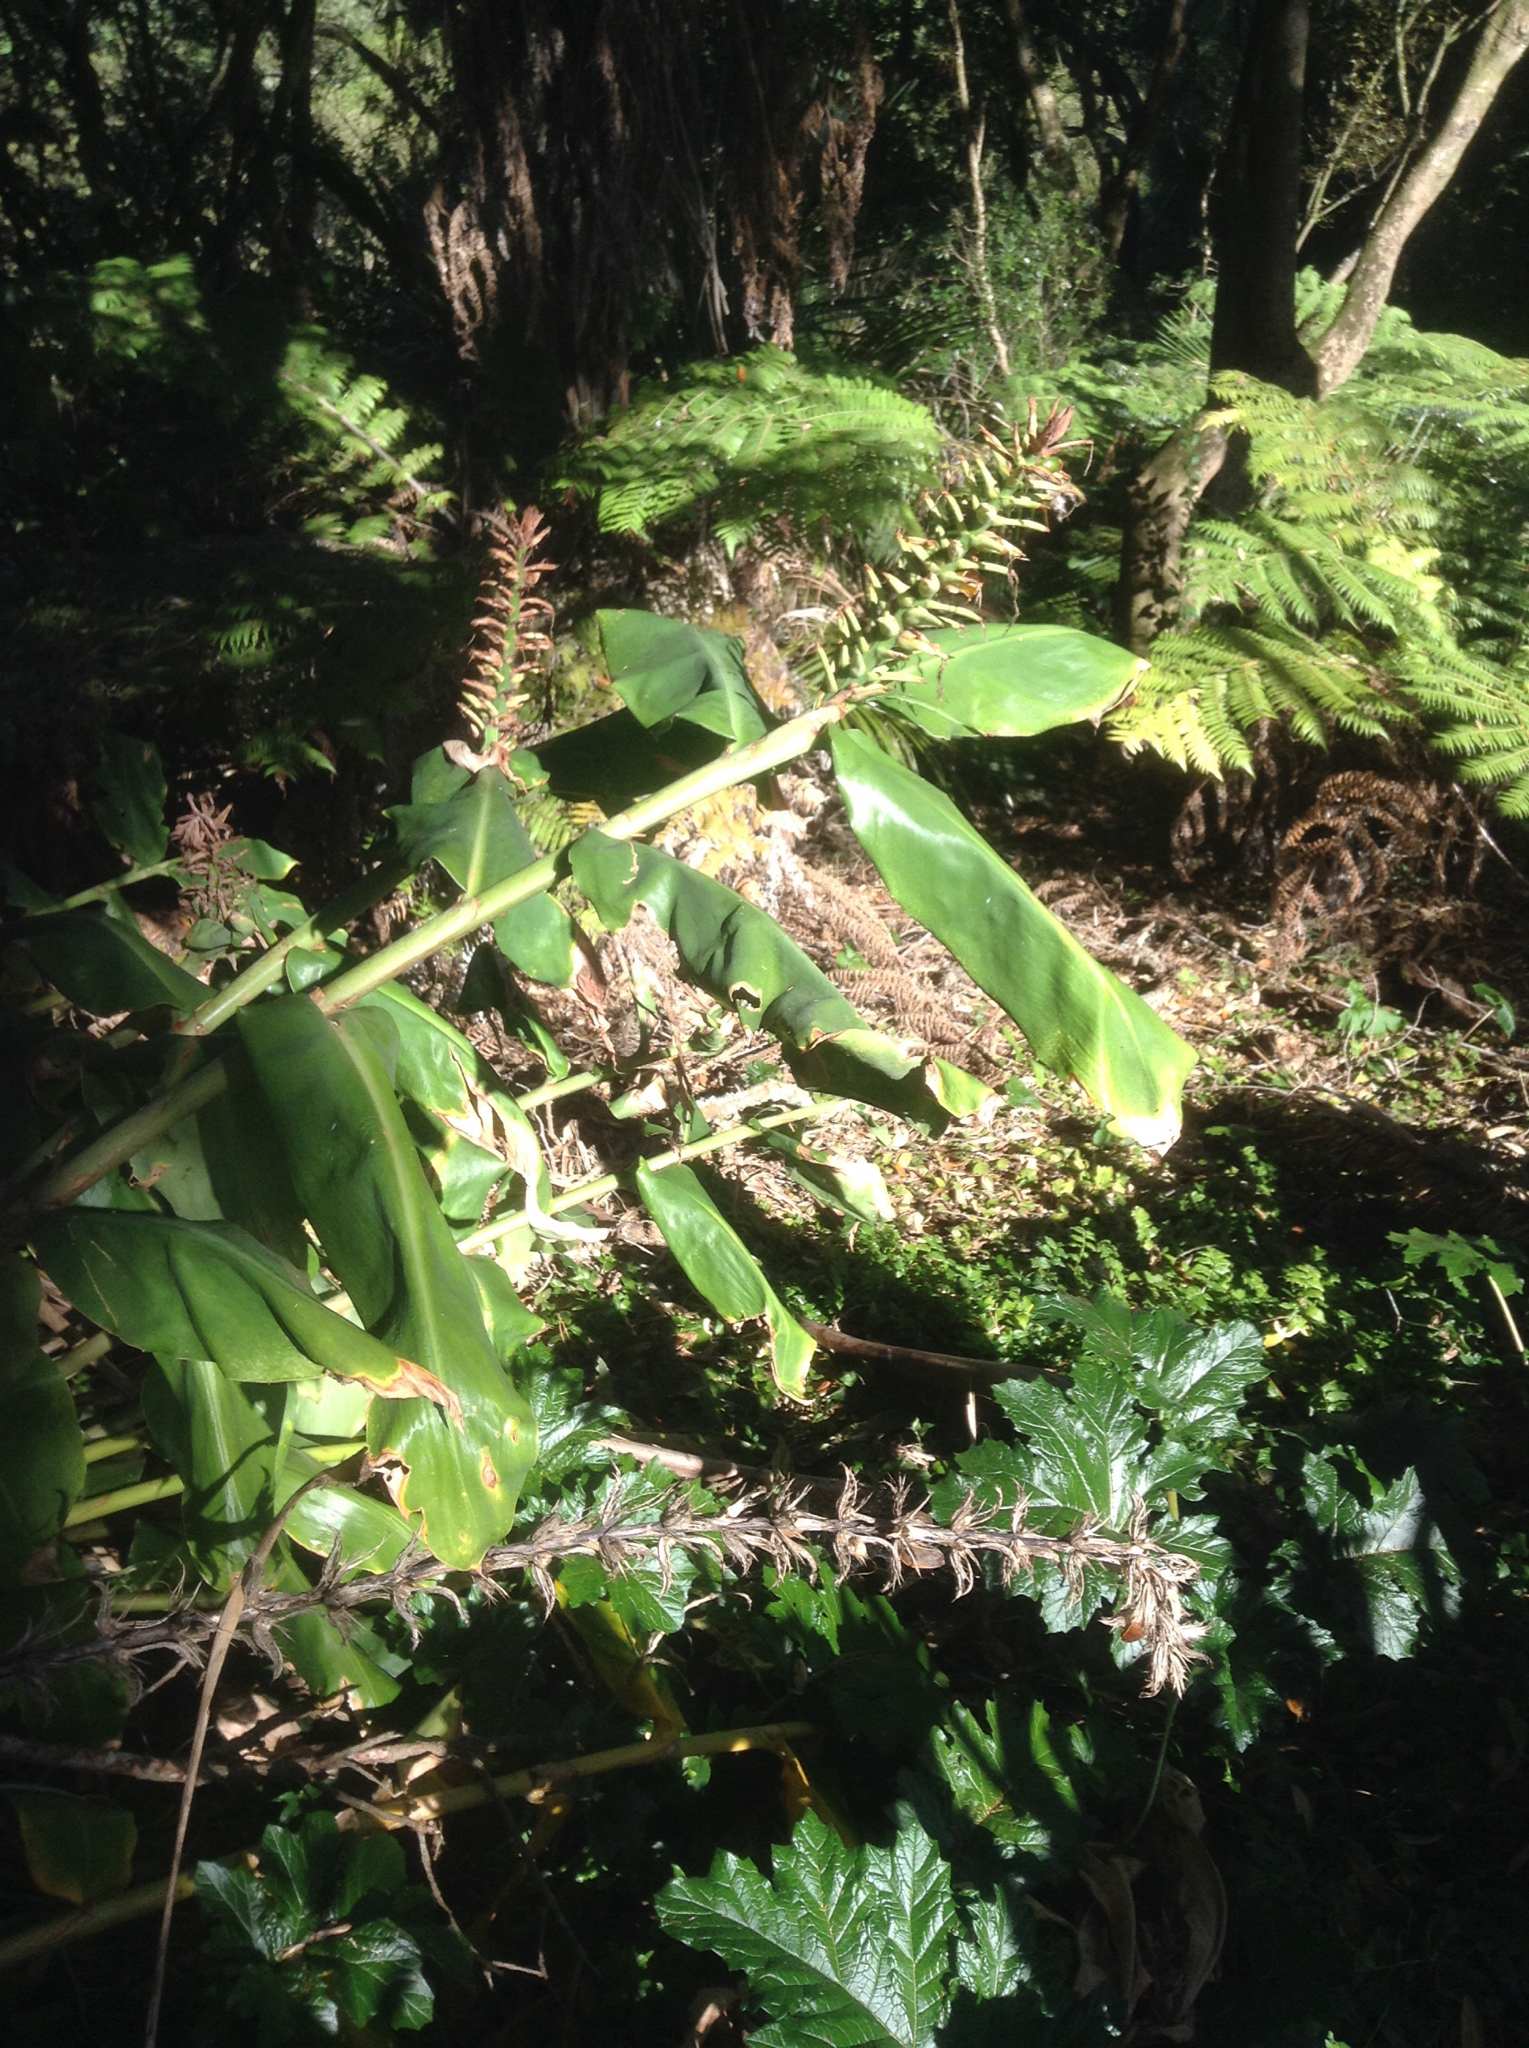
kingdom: Plantae
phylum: Tracheophyta
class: Liliopsida
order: Zingiberales
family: Zingiberaceae
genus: Hedychium
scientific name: Hedychium gardnerianum
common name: Himalayan ginger
